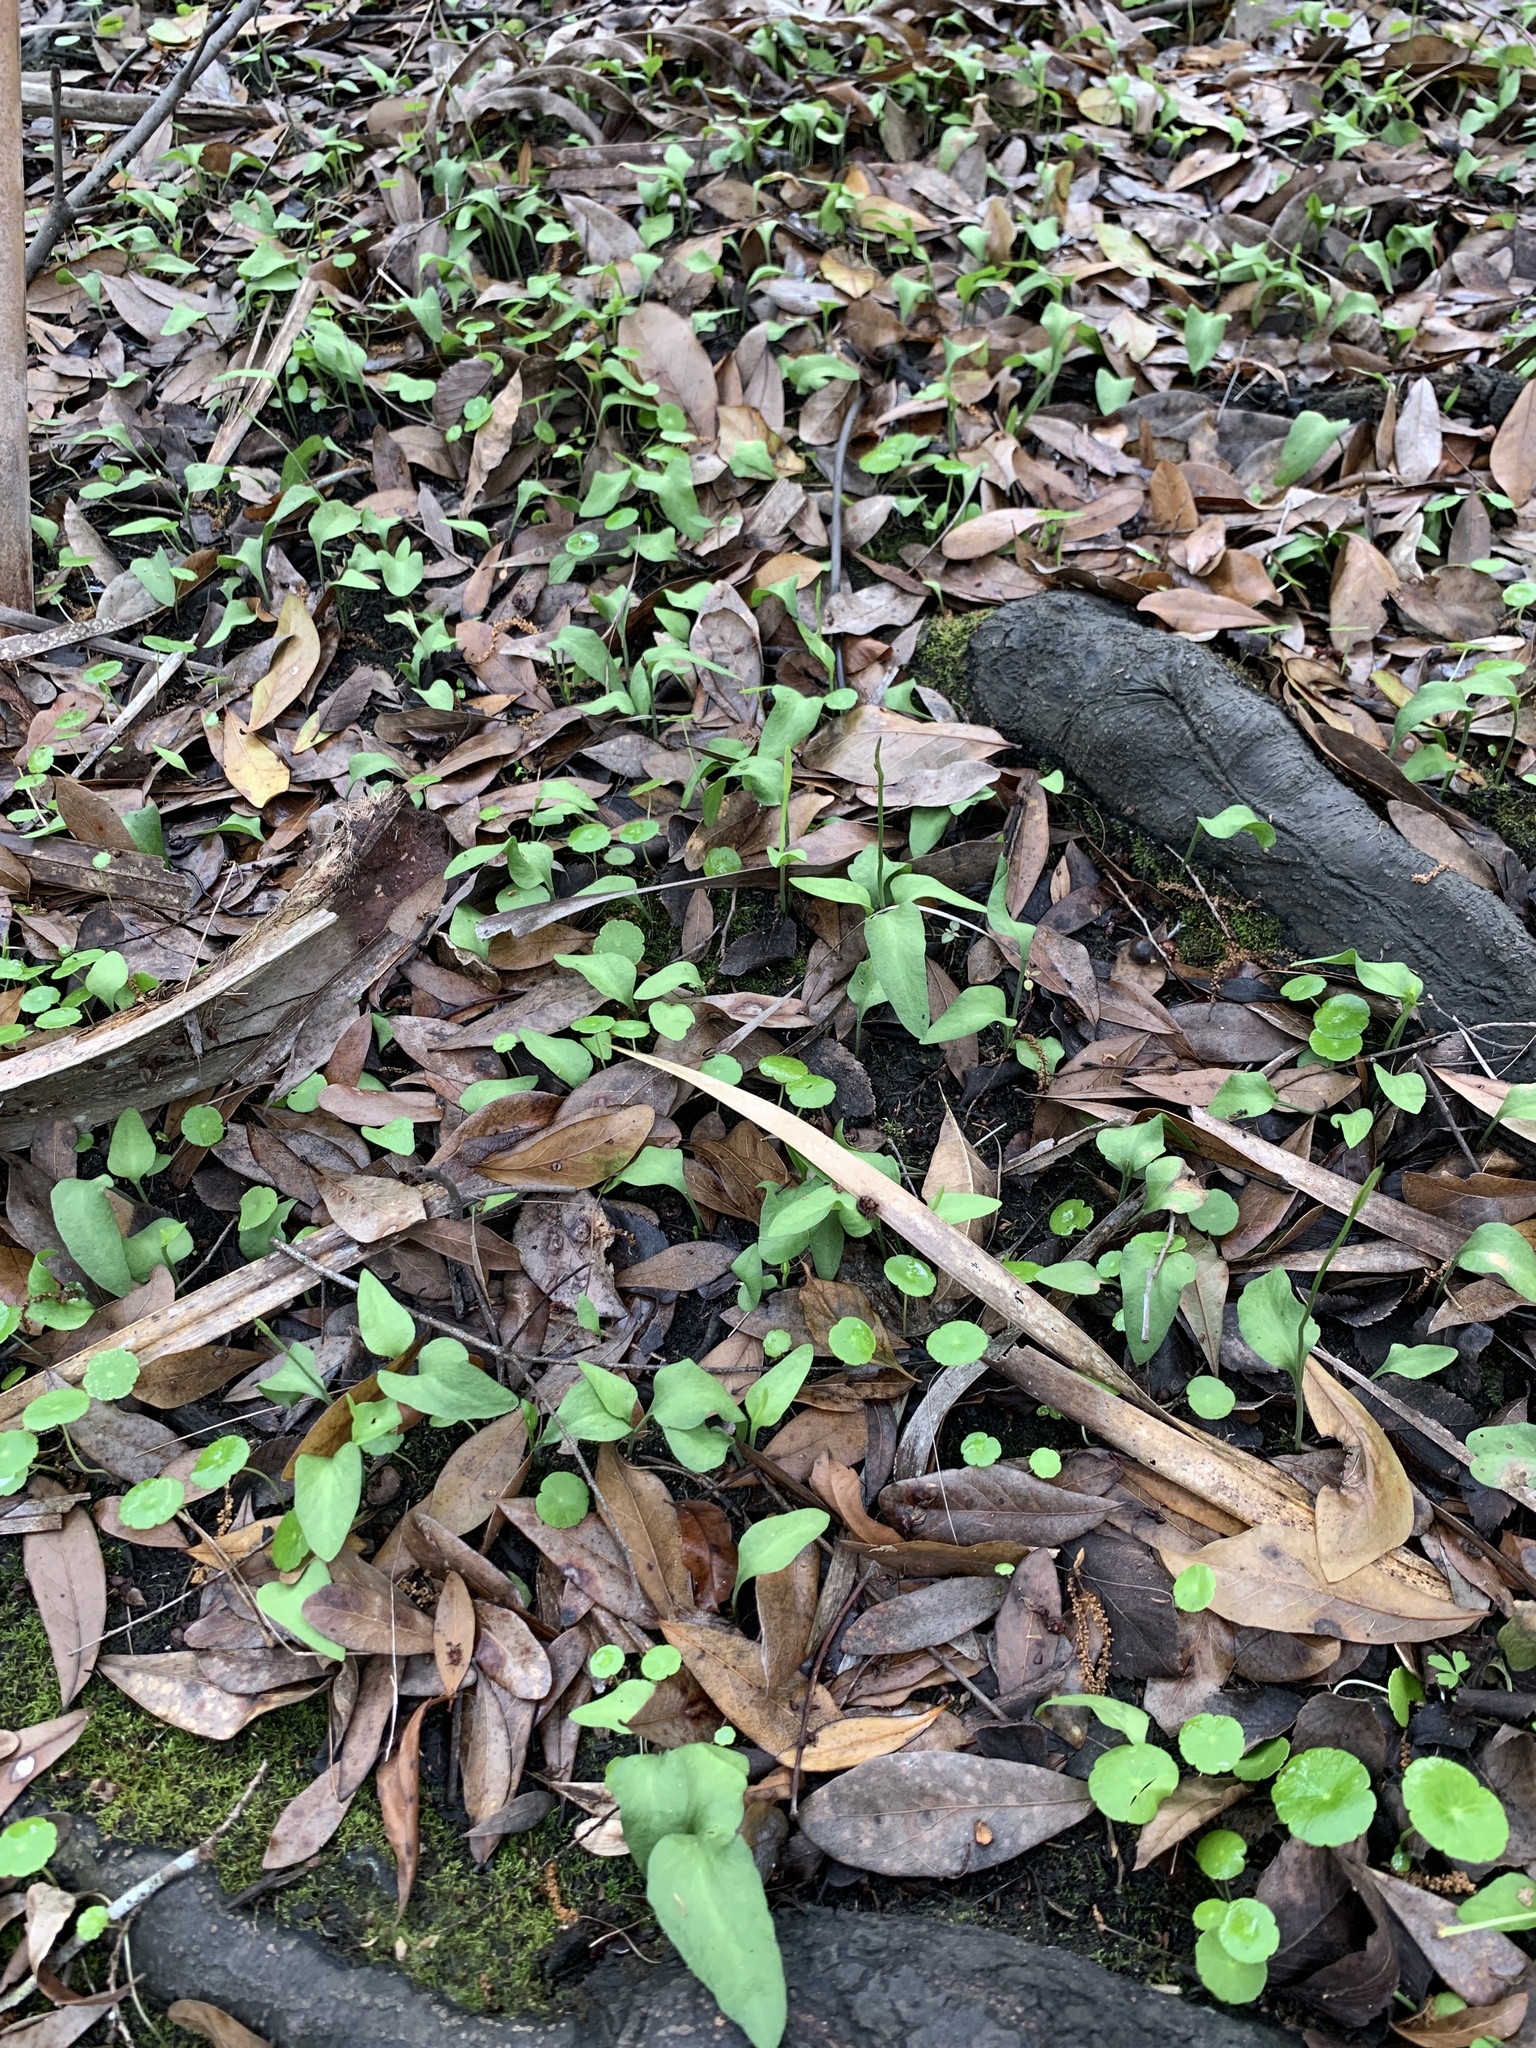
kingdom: Plantae
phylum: Tracheophyta
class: Polypodiopsida
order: Ophioglossales
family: Ophioglossaceae
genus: Ophioglossum
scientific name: Ophioglossum petiolatum
